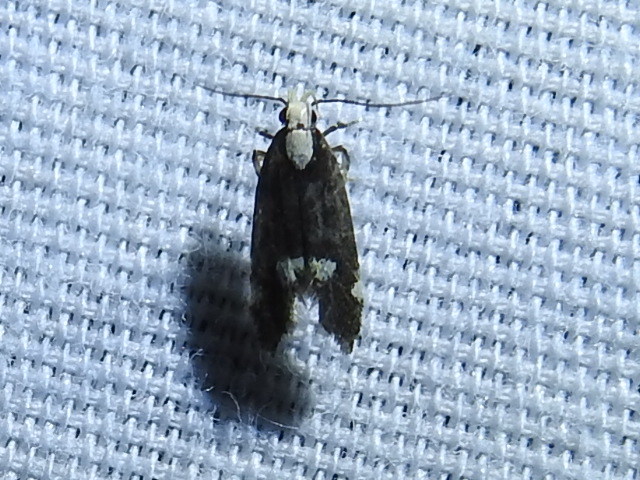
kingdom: Animalia
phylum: Arthropoda
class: Insecta
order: Lepidoptera
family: Gelechiidae
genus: Chionodes
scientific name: Chionodes mariona
